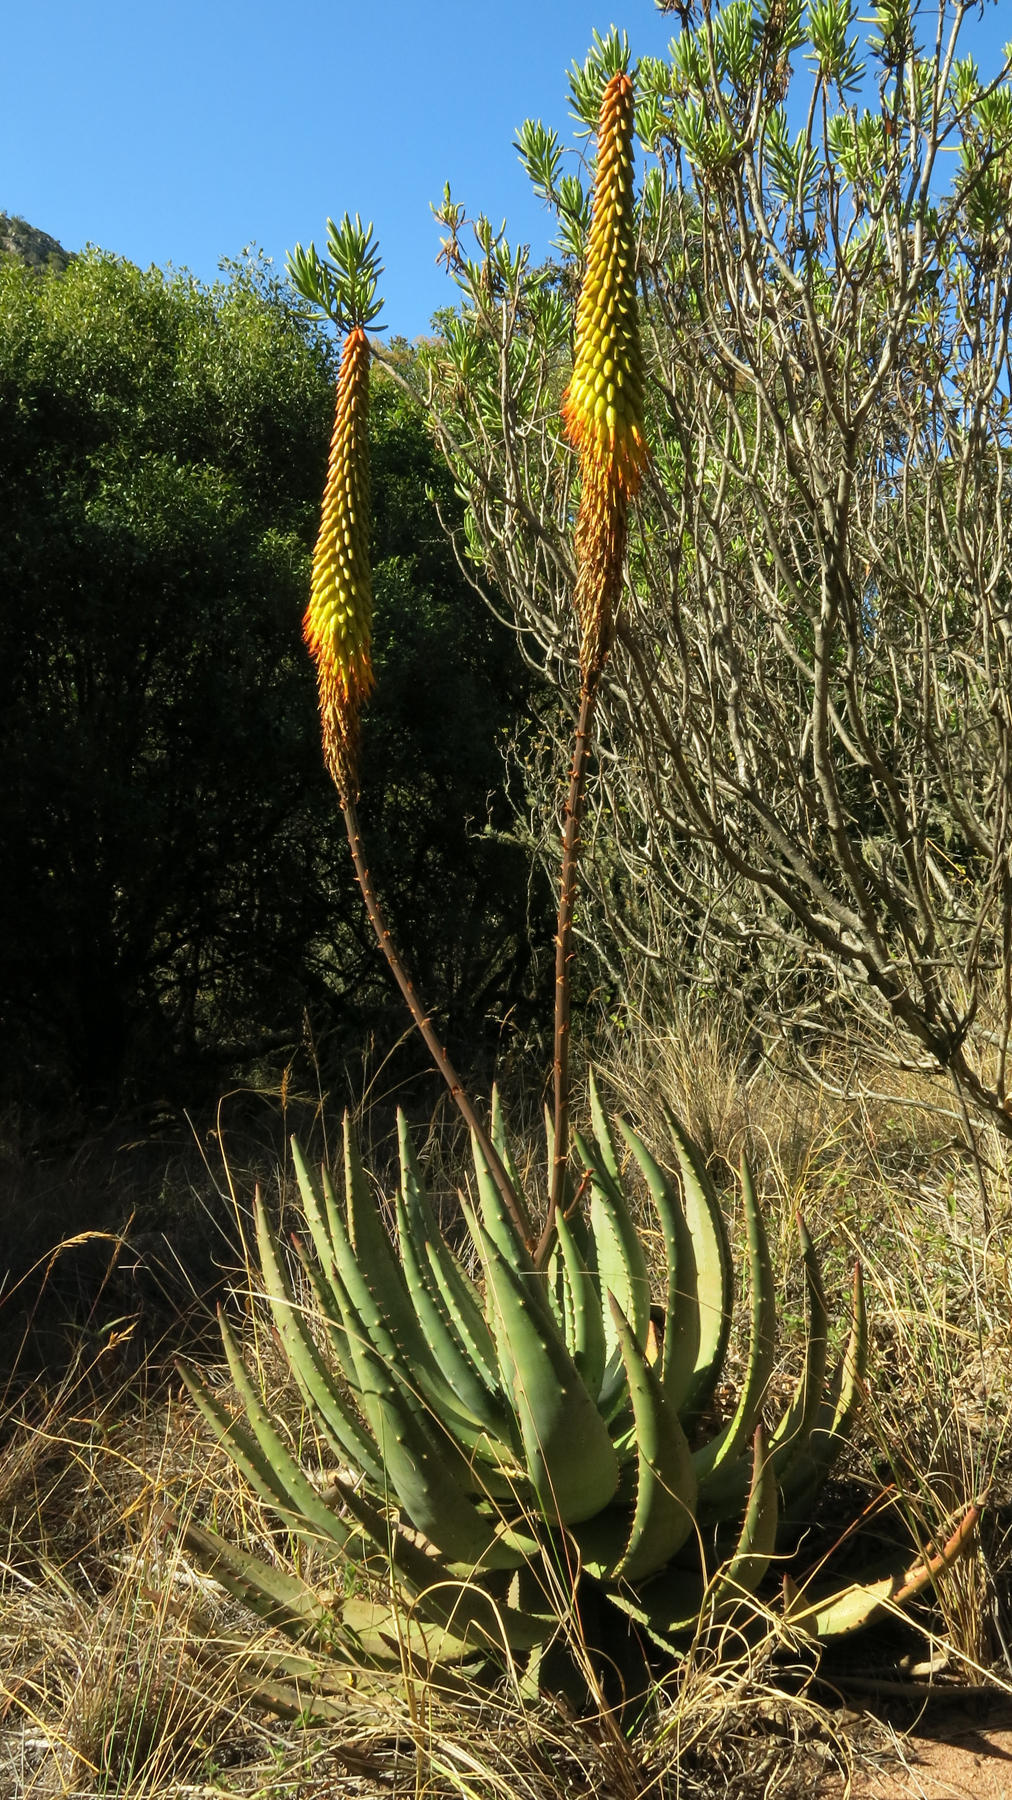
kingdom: Plantae
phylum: Tracheophyta
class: Liliopsida
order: Asparagales
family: Asphodelaceae
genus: Aloe
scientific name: Aloe aculeata
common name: Red hot poker aloe
